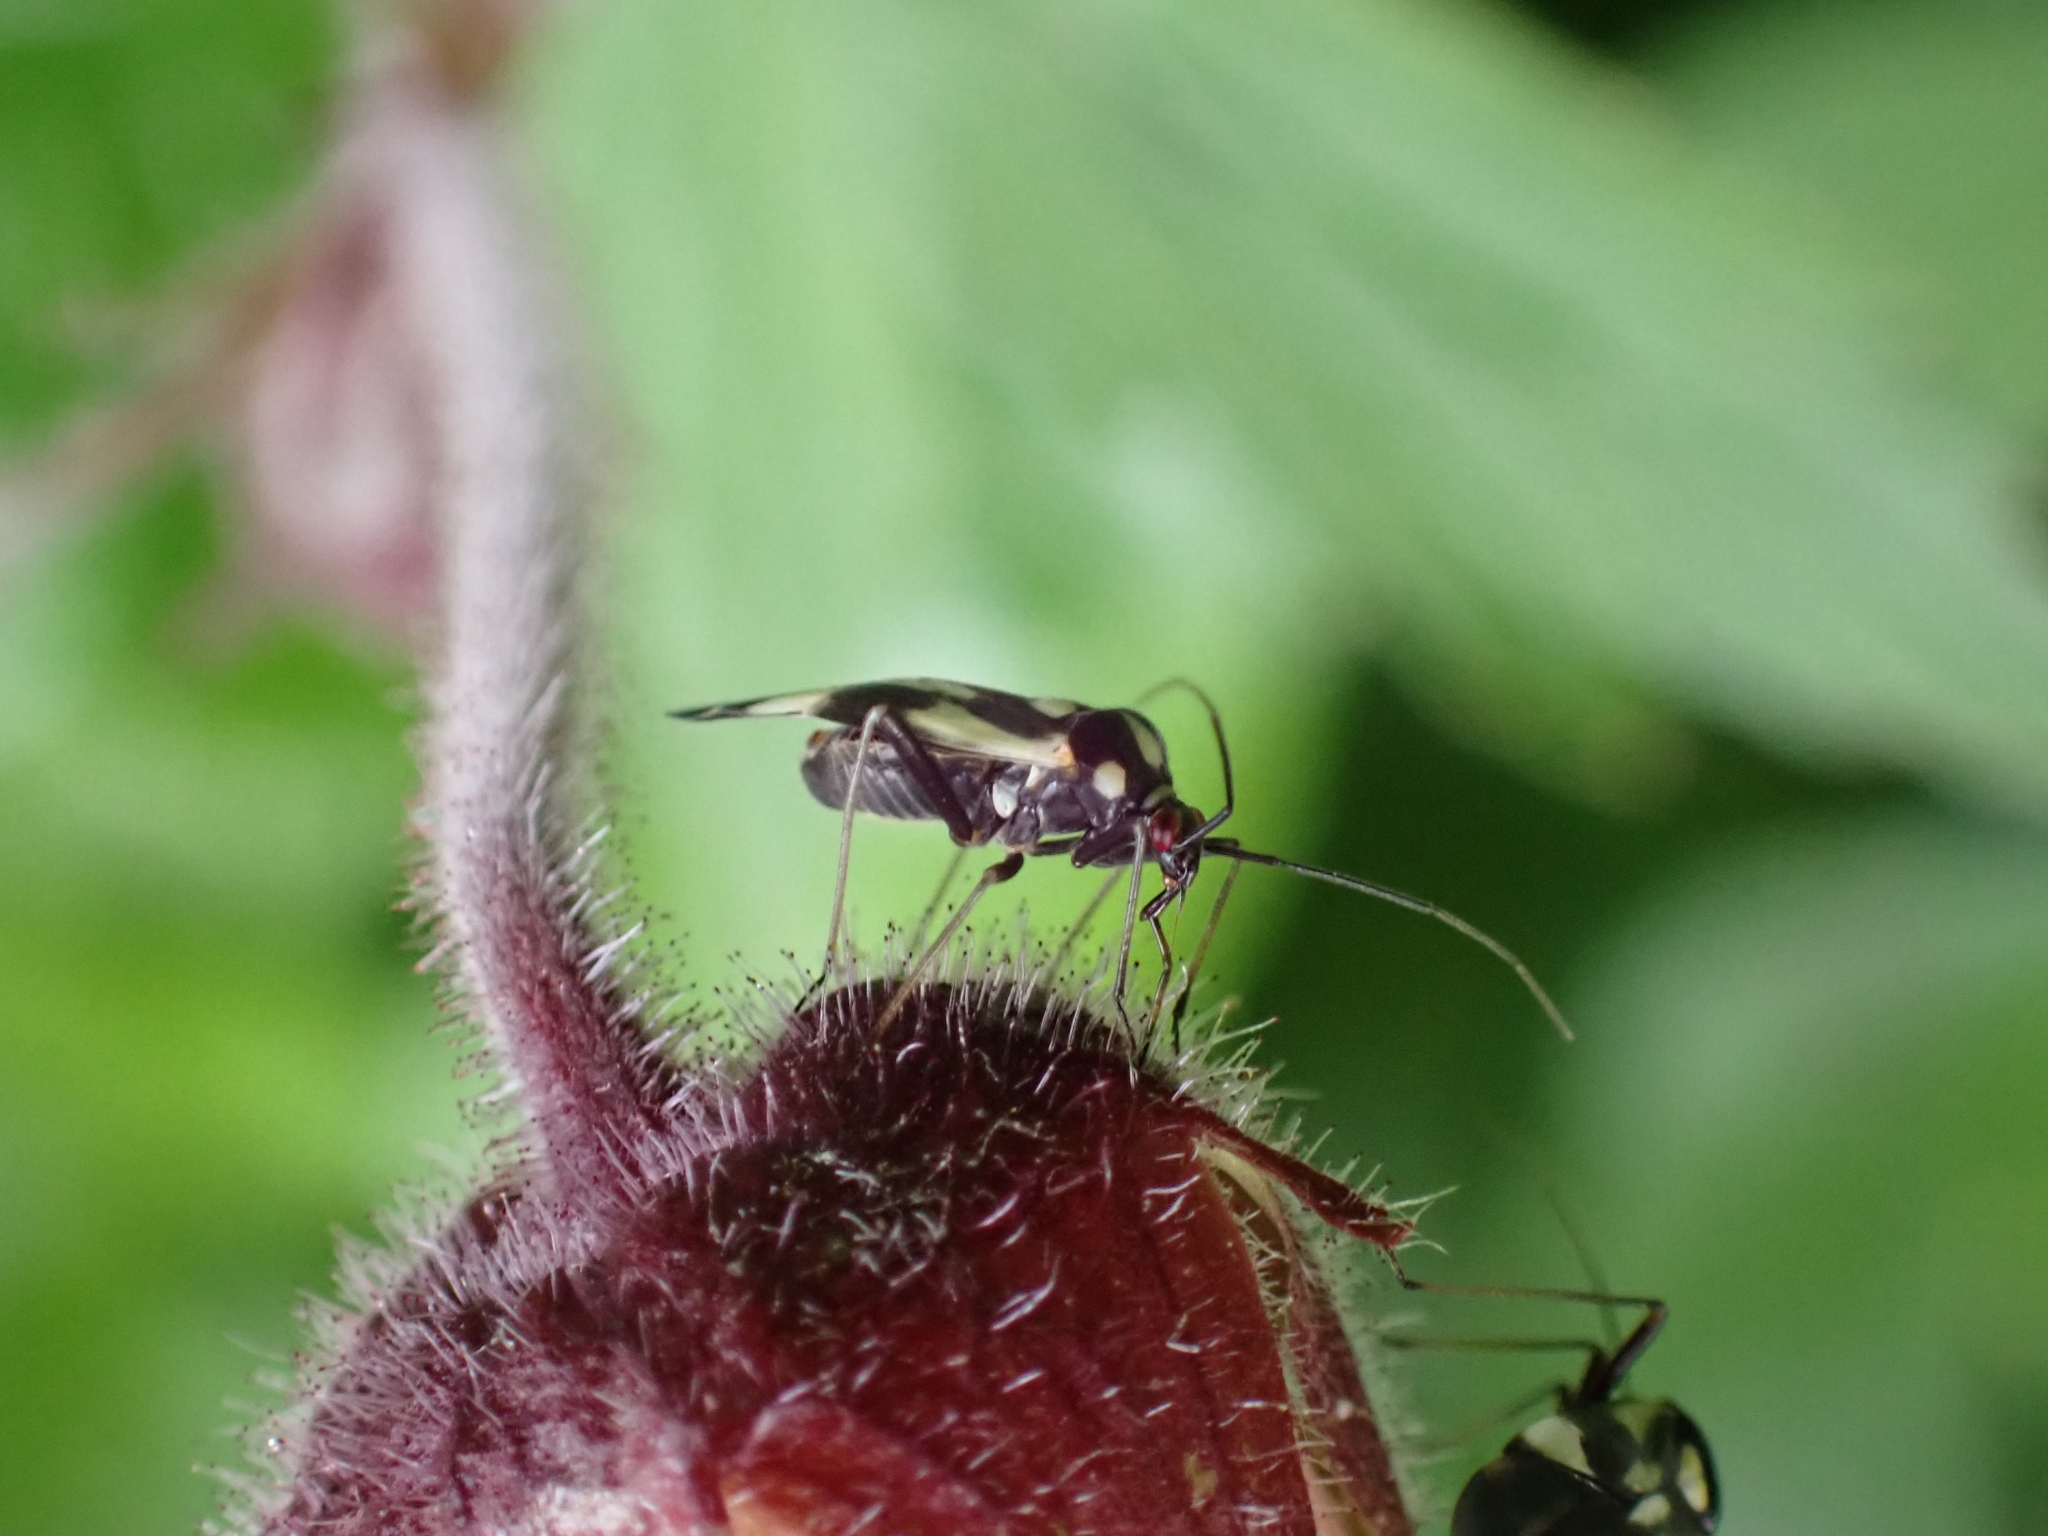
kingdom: Animalia
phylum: Arthropoda
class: Insecta
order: Hemiptera
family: Miridae
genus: Grypocoris
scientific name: Grypocoris sexguttatus
